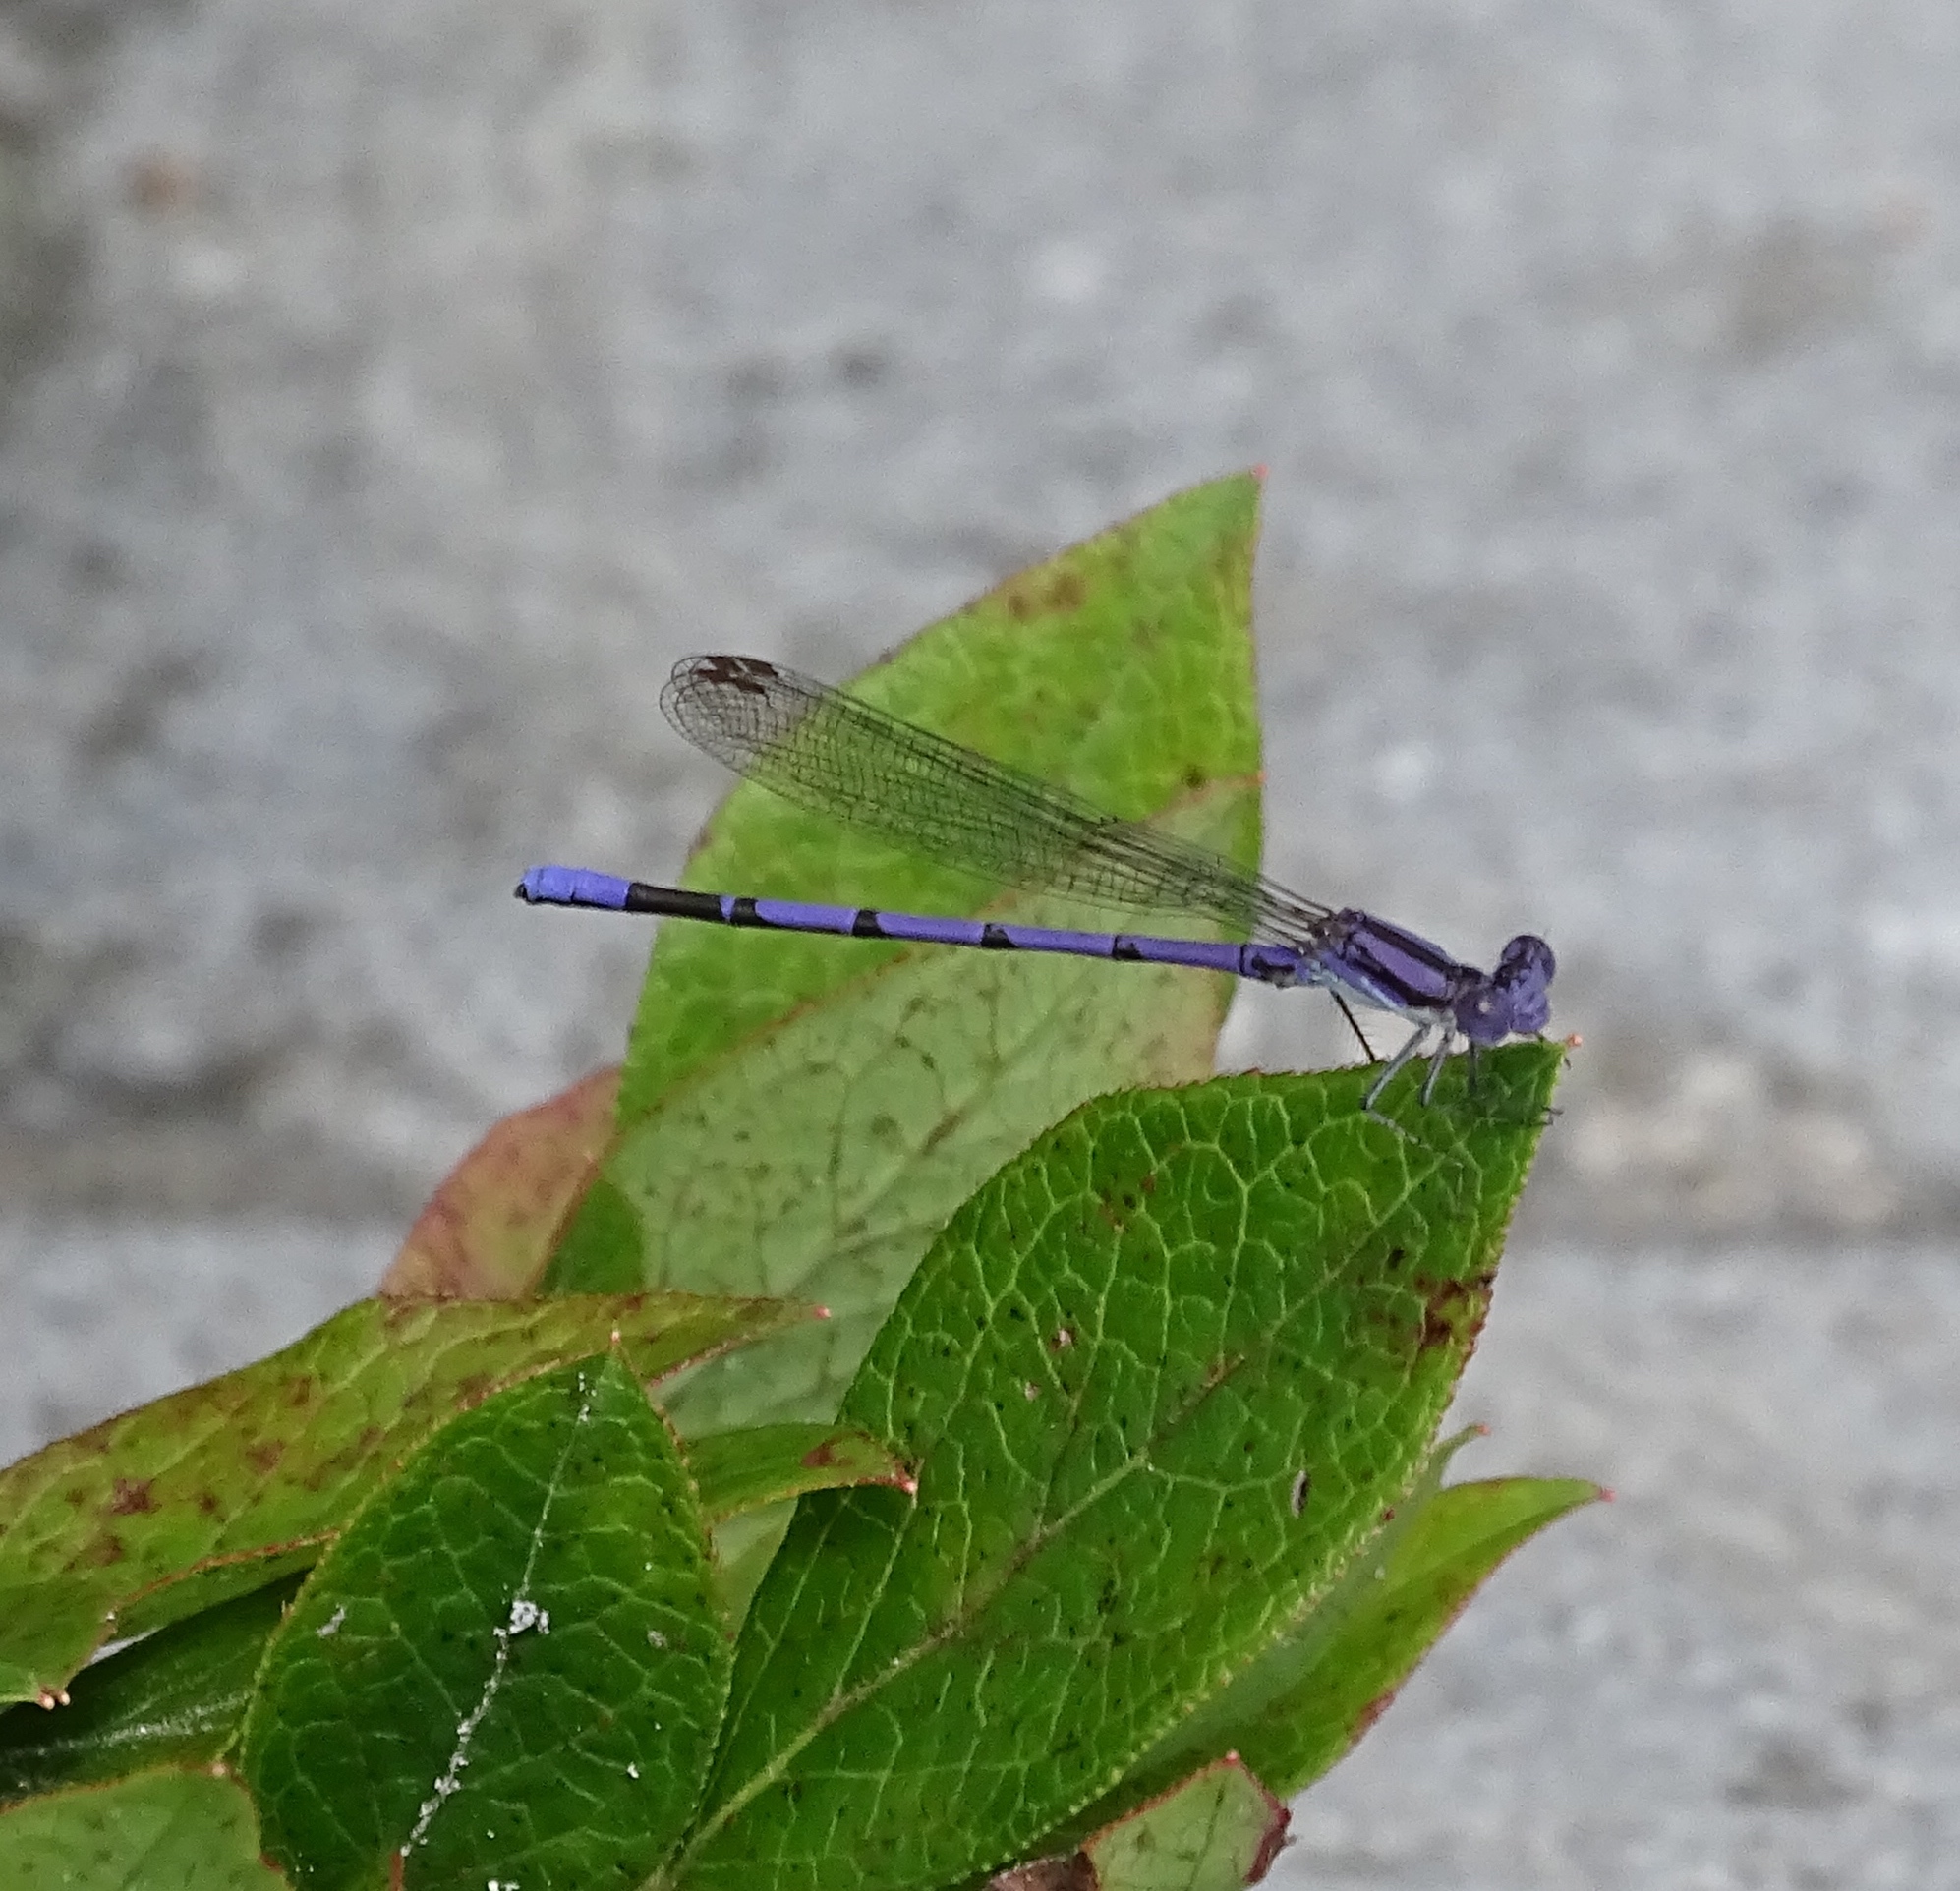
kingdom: Animalia
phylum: Arthropoda
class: Insecta
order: Odonata
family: Coenagrionidae
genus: Argia
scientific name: Argia fumipennis
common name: Variable dancer
